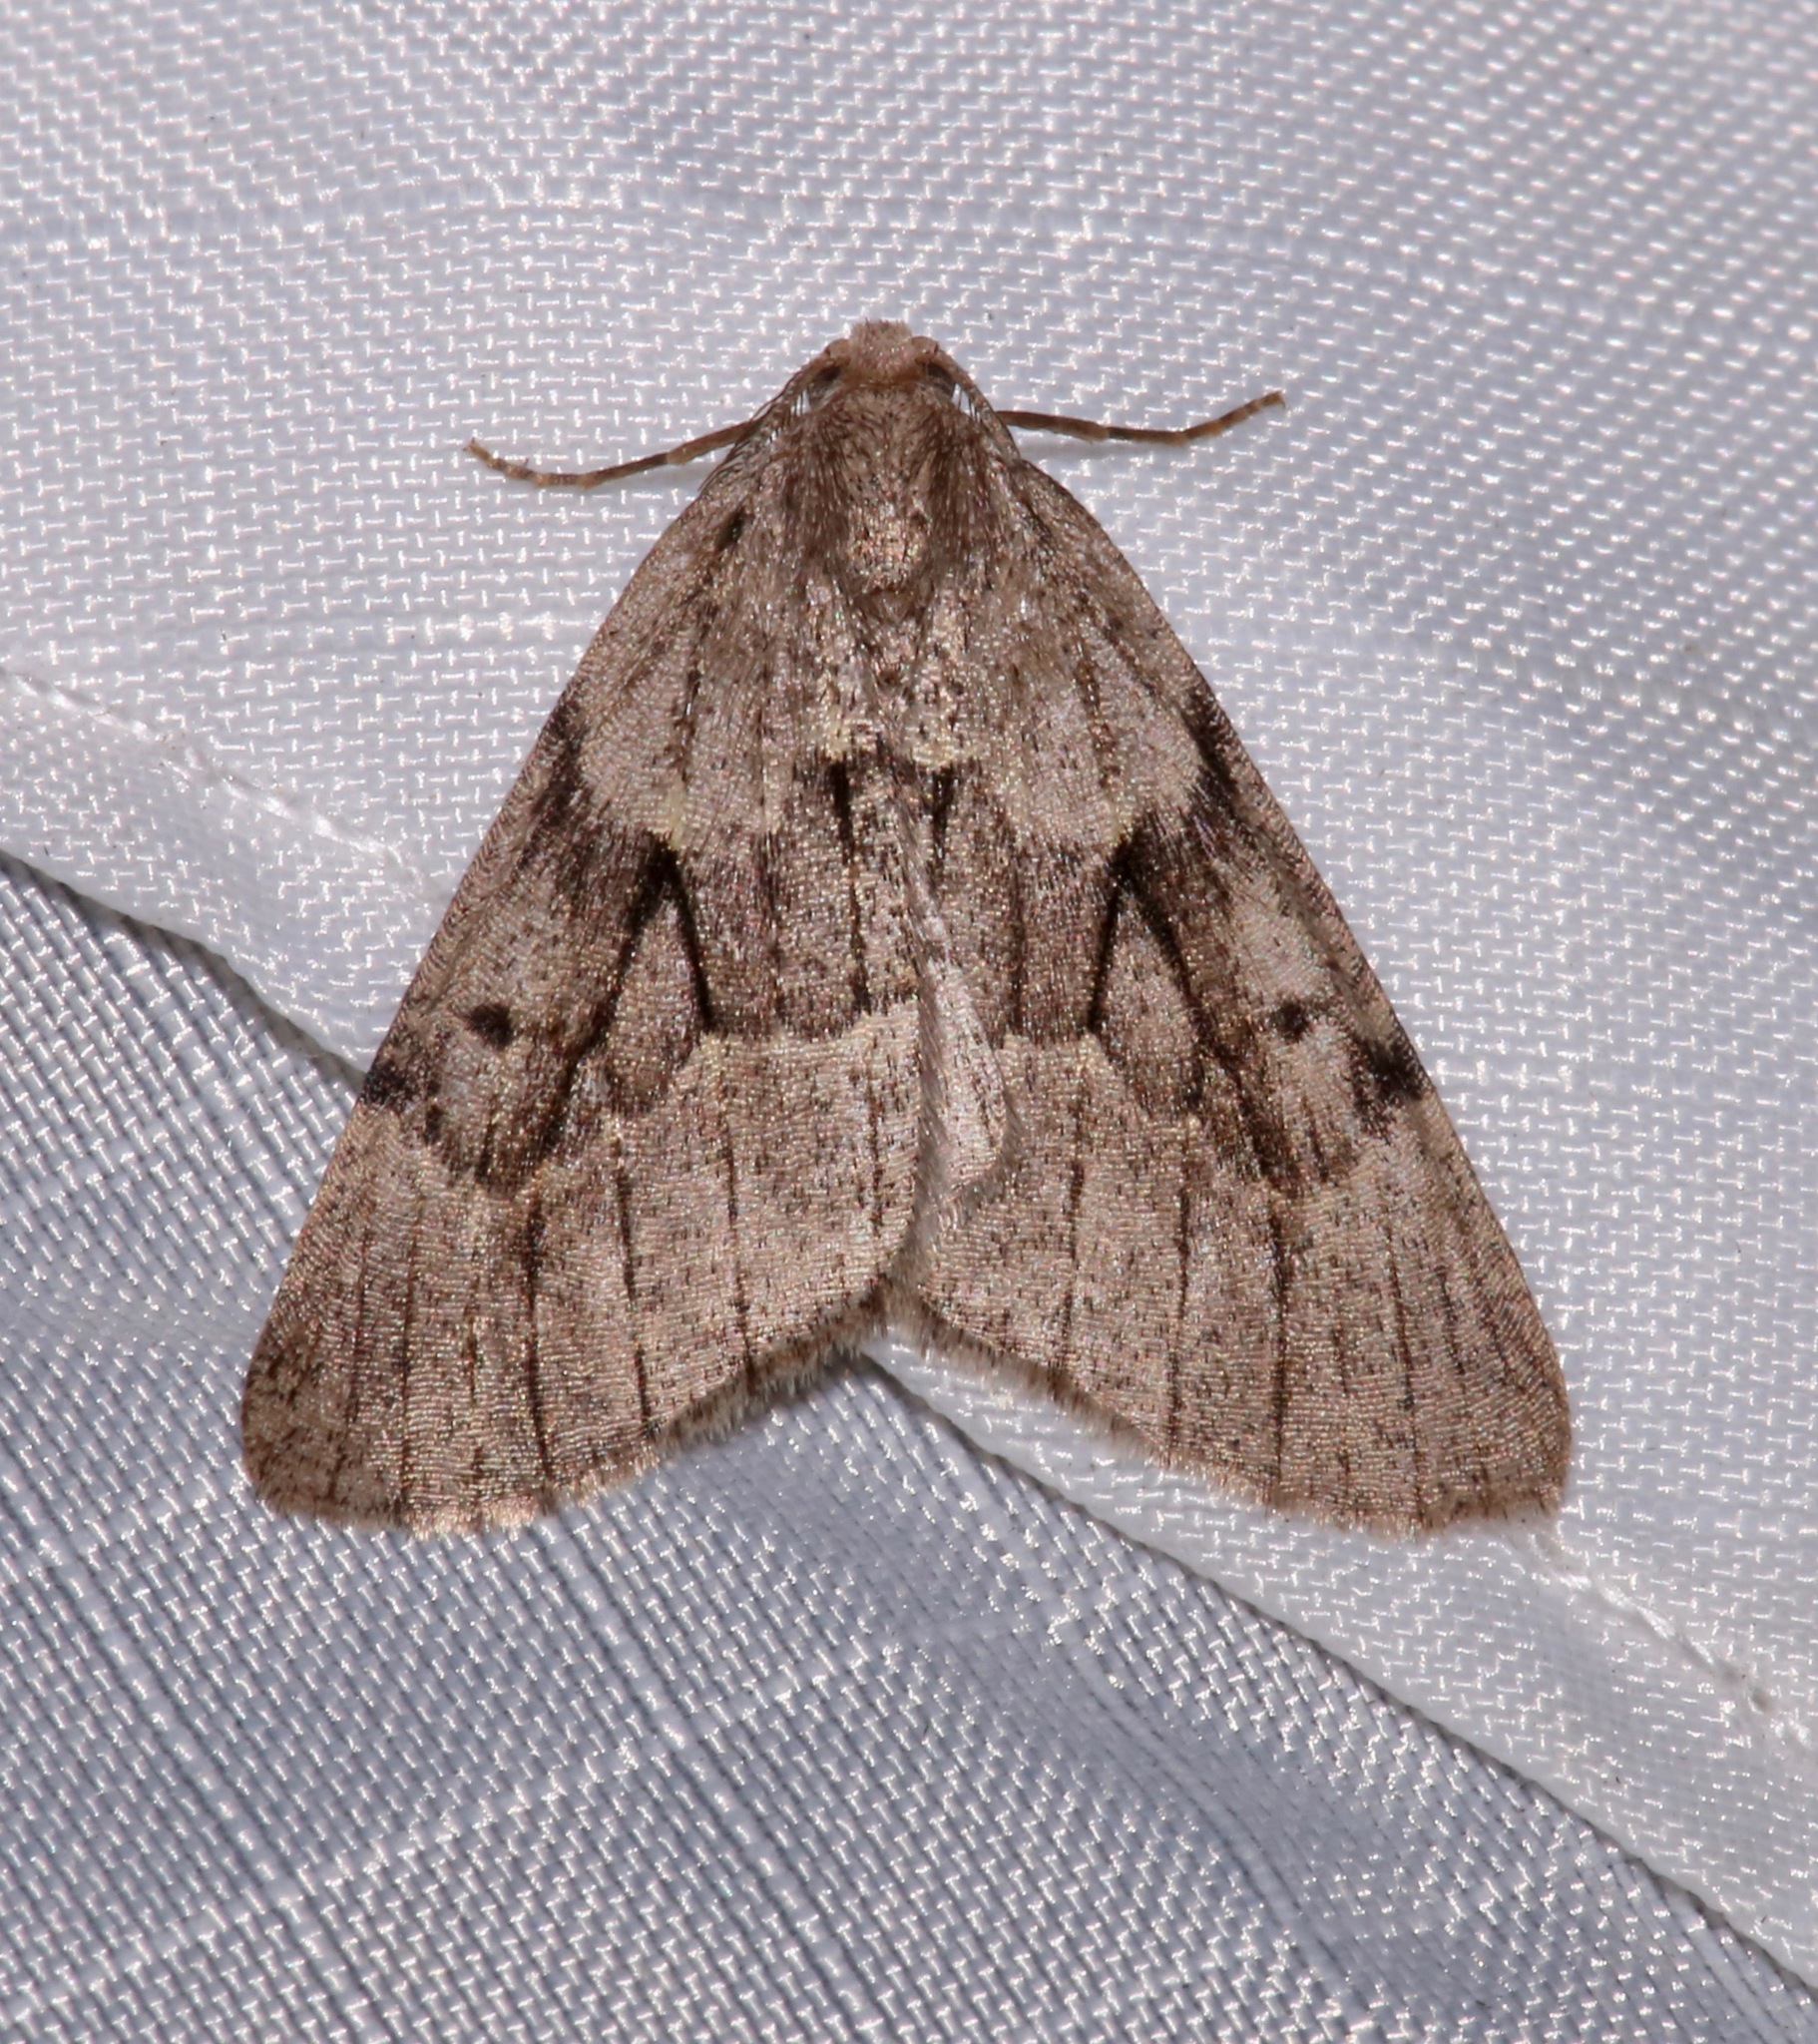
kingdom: Animalia
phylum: Arthropoda
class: Insecta
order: Lepidoptera
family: Geometridae
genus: Nepytia
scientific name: Nepytia swetti
